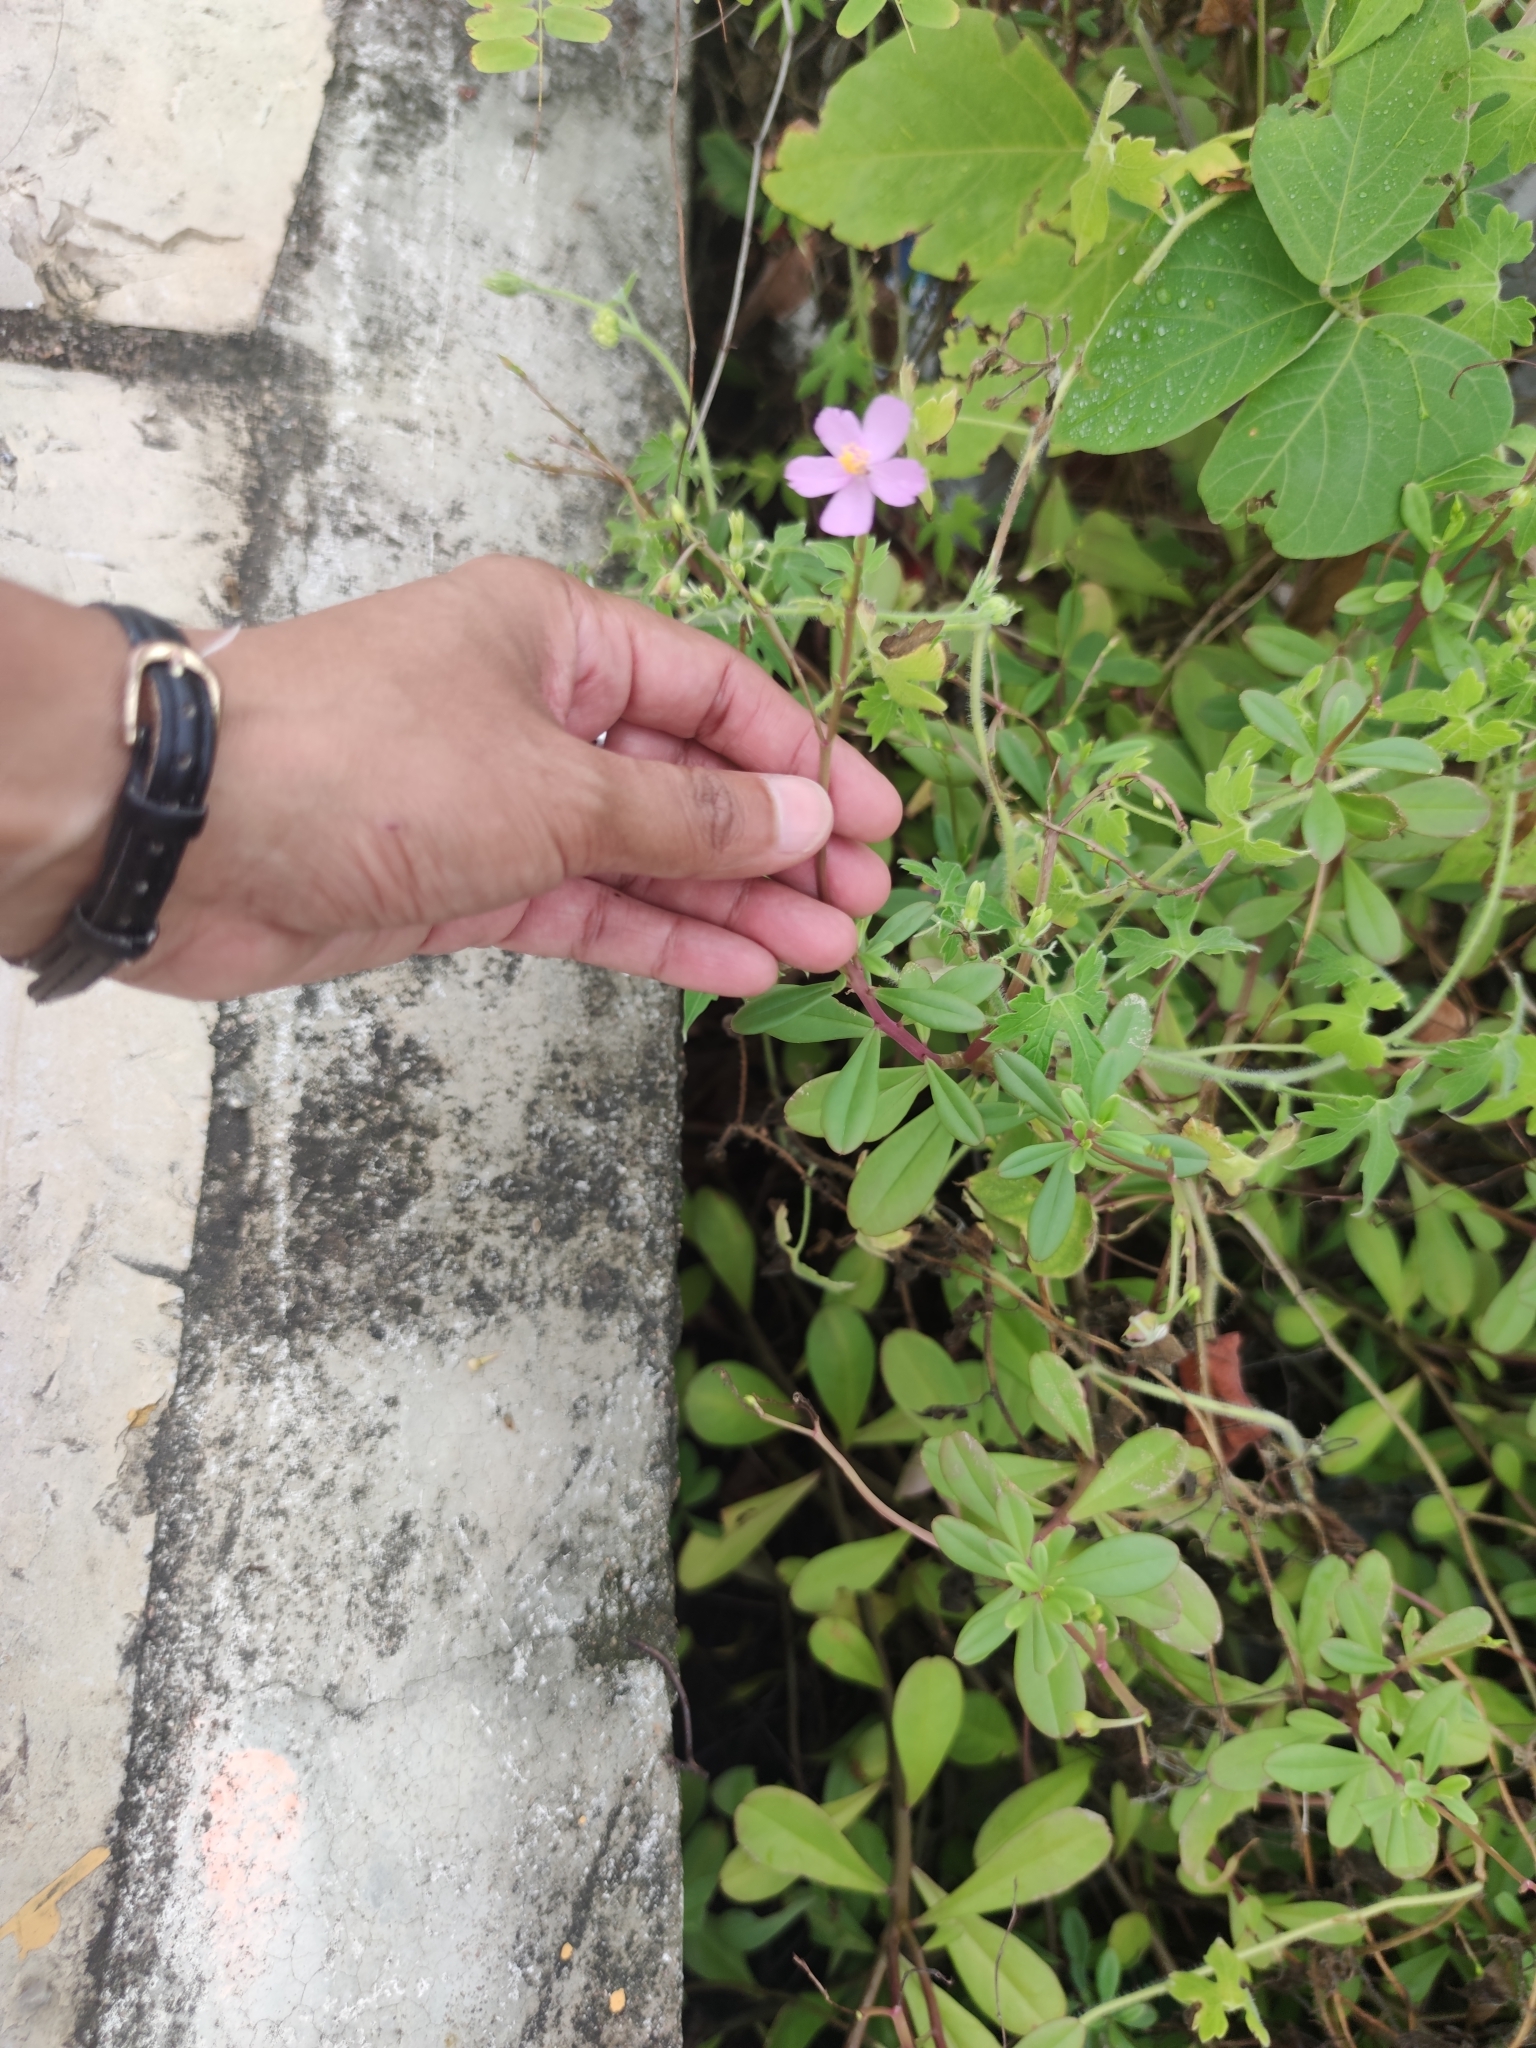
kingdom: Plantae
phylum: Tracheophyta
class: Magnoliopsida
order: Caryophyllales
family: Talinaceae
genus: Talinum
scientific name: Talinum fruticosum
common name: Verdolaga-francesa
